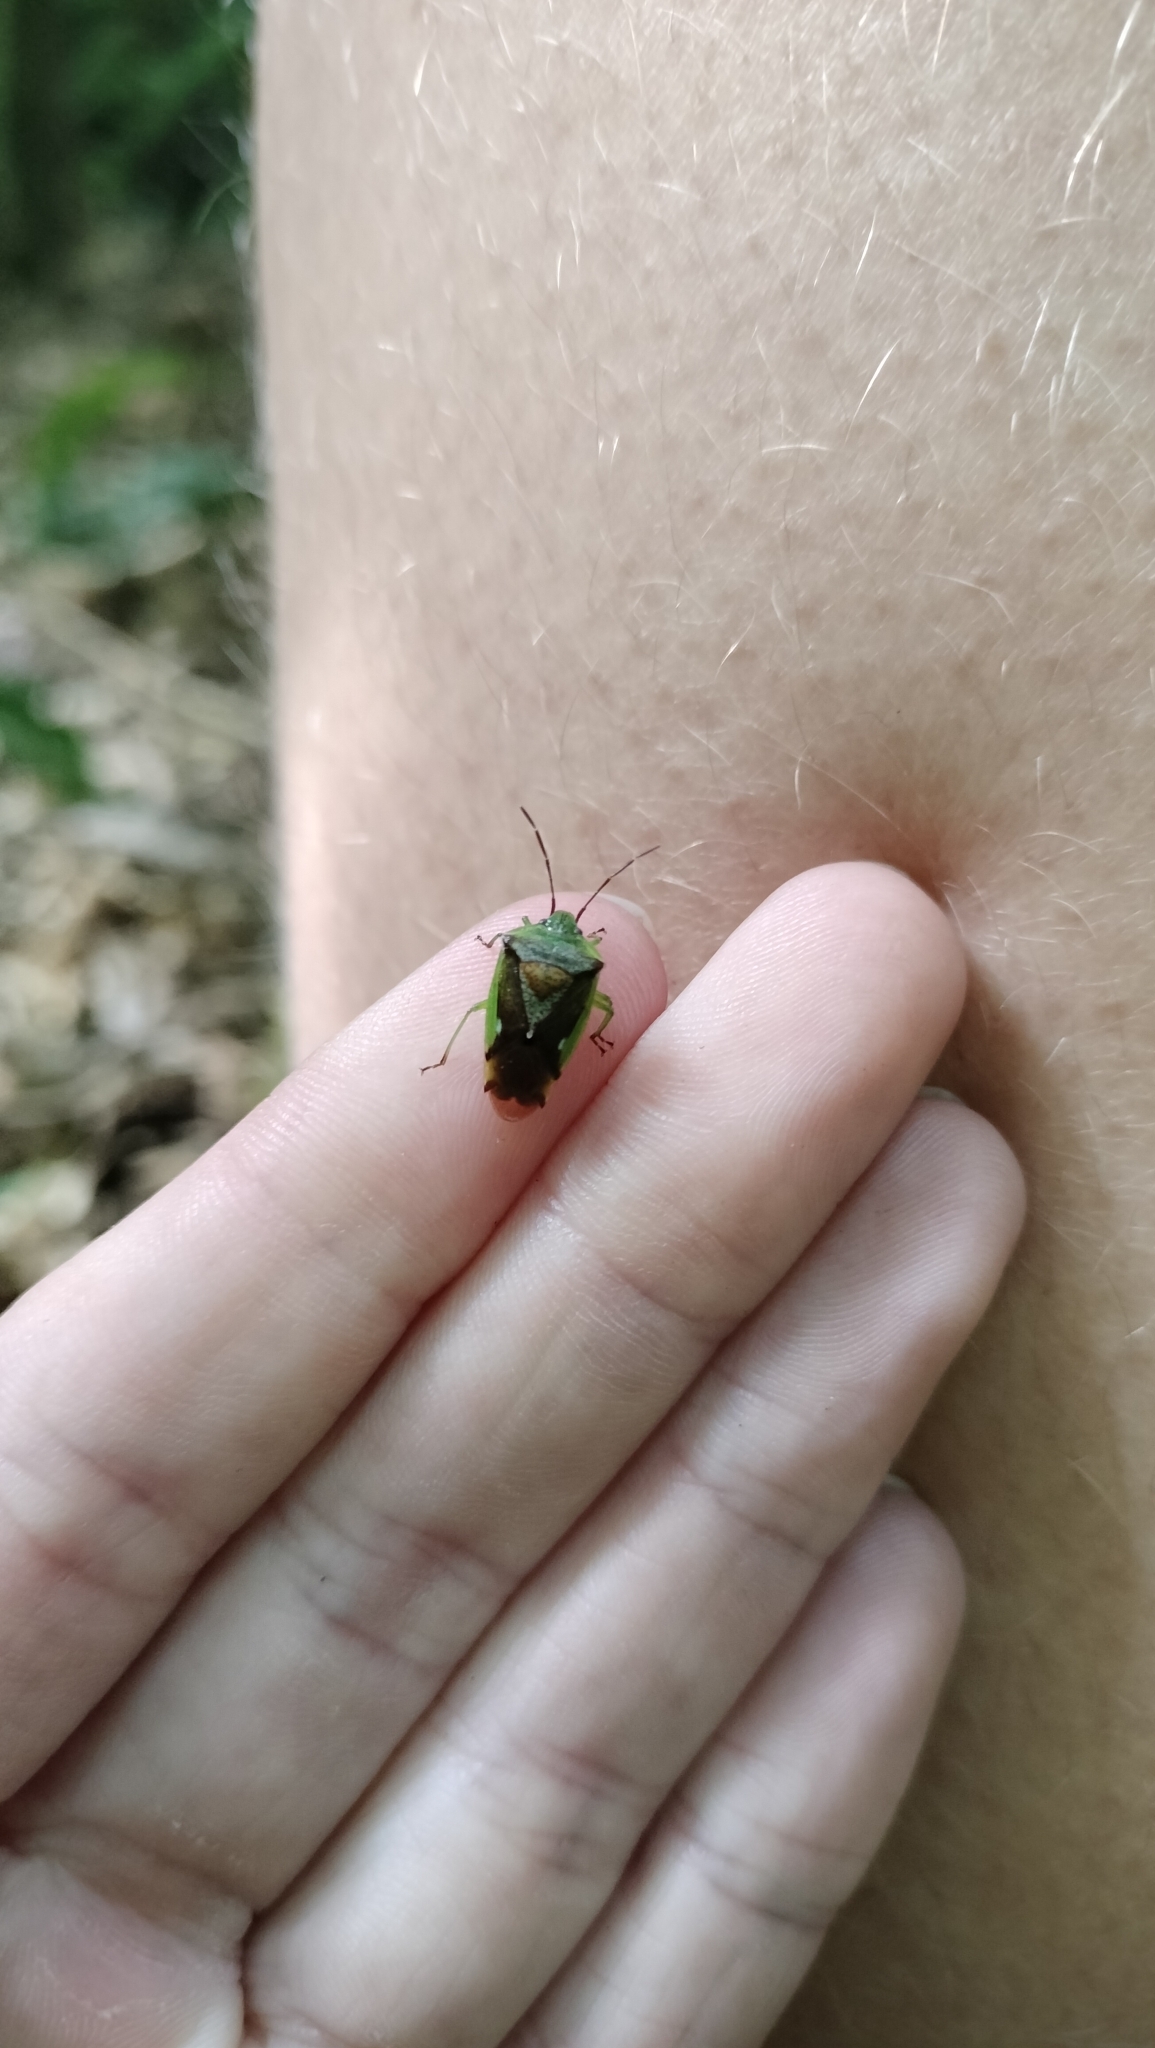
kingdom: Animalia
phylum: Arthropoda
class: Insecta
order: Hemiptera
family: Acanthosomatidae
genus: Oncacontias
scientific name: Oncacontias vittatus
